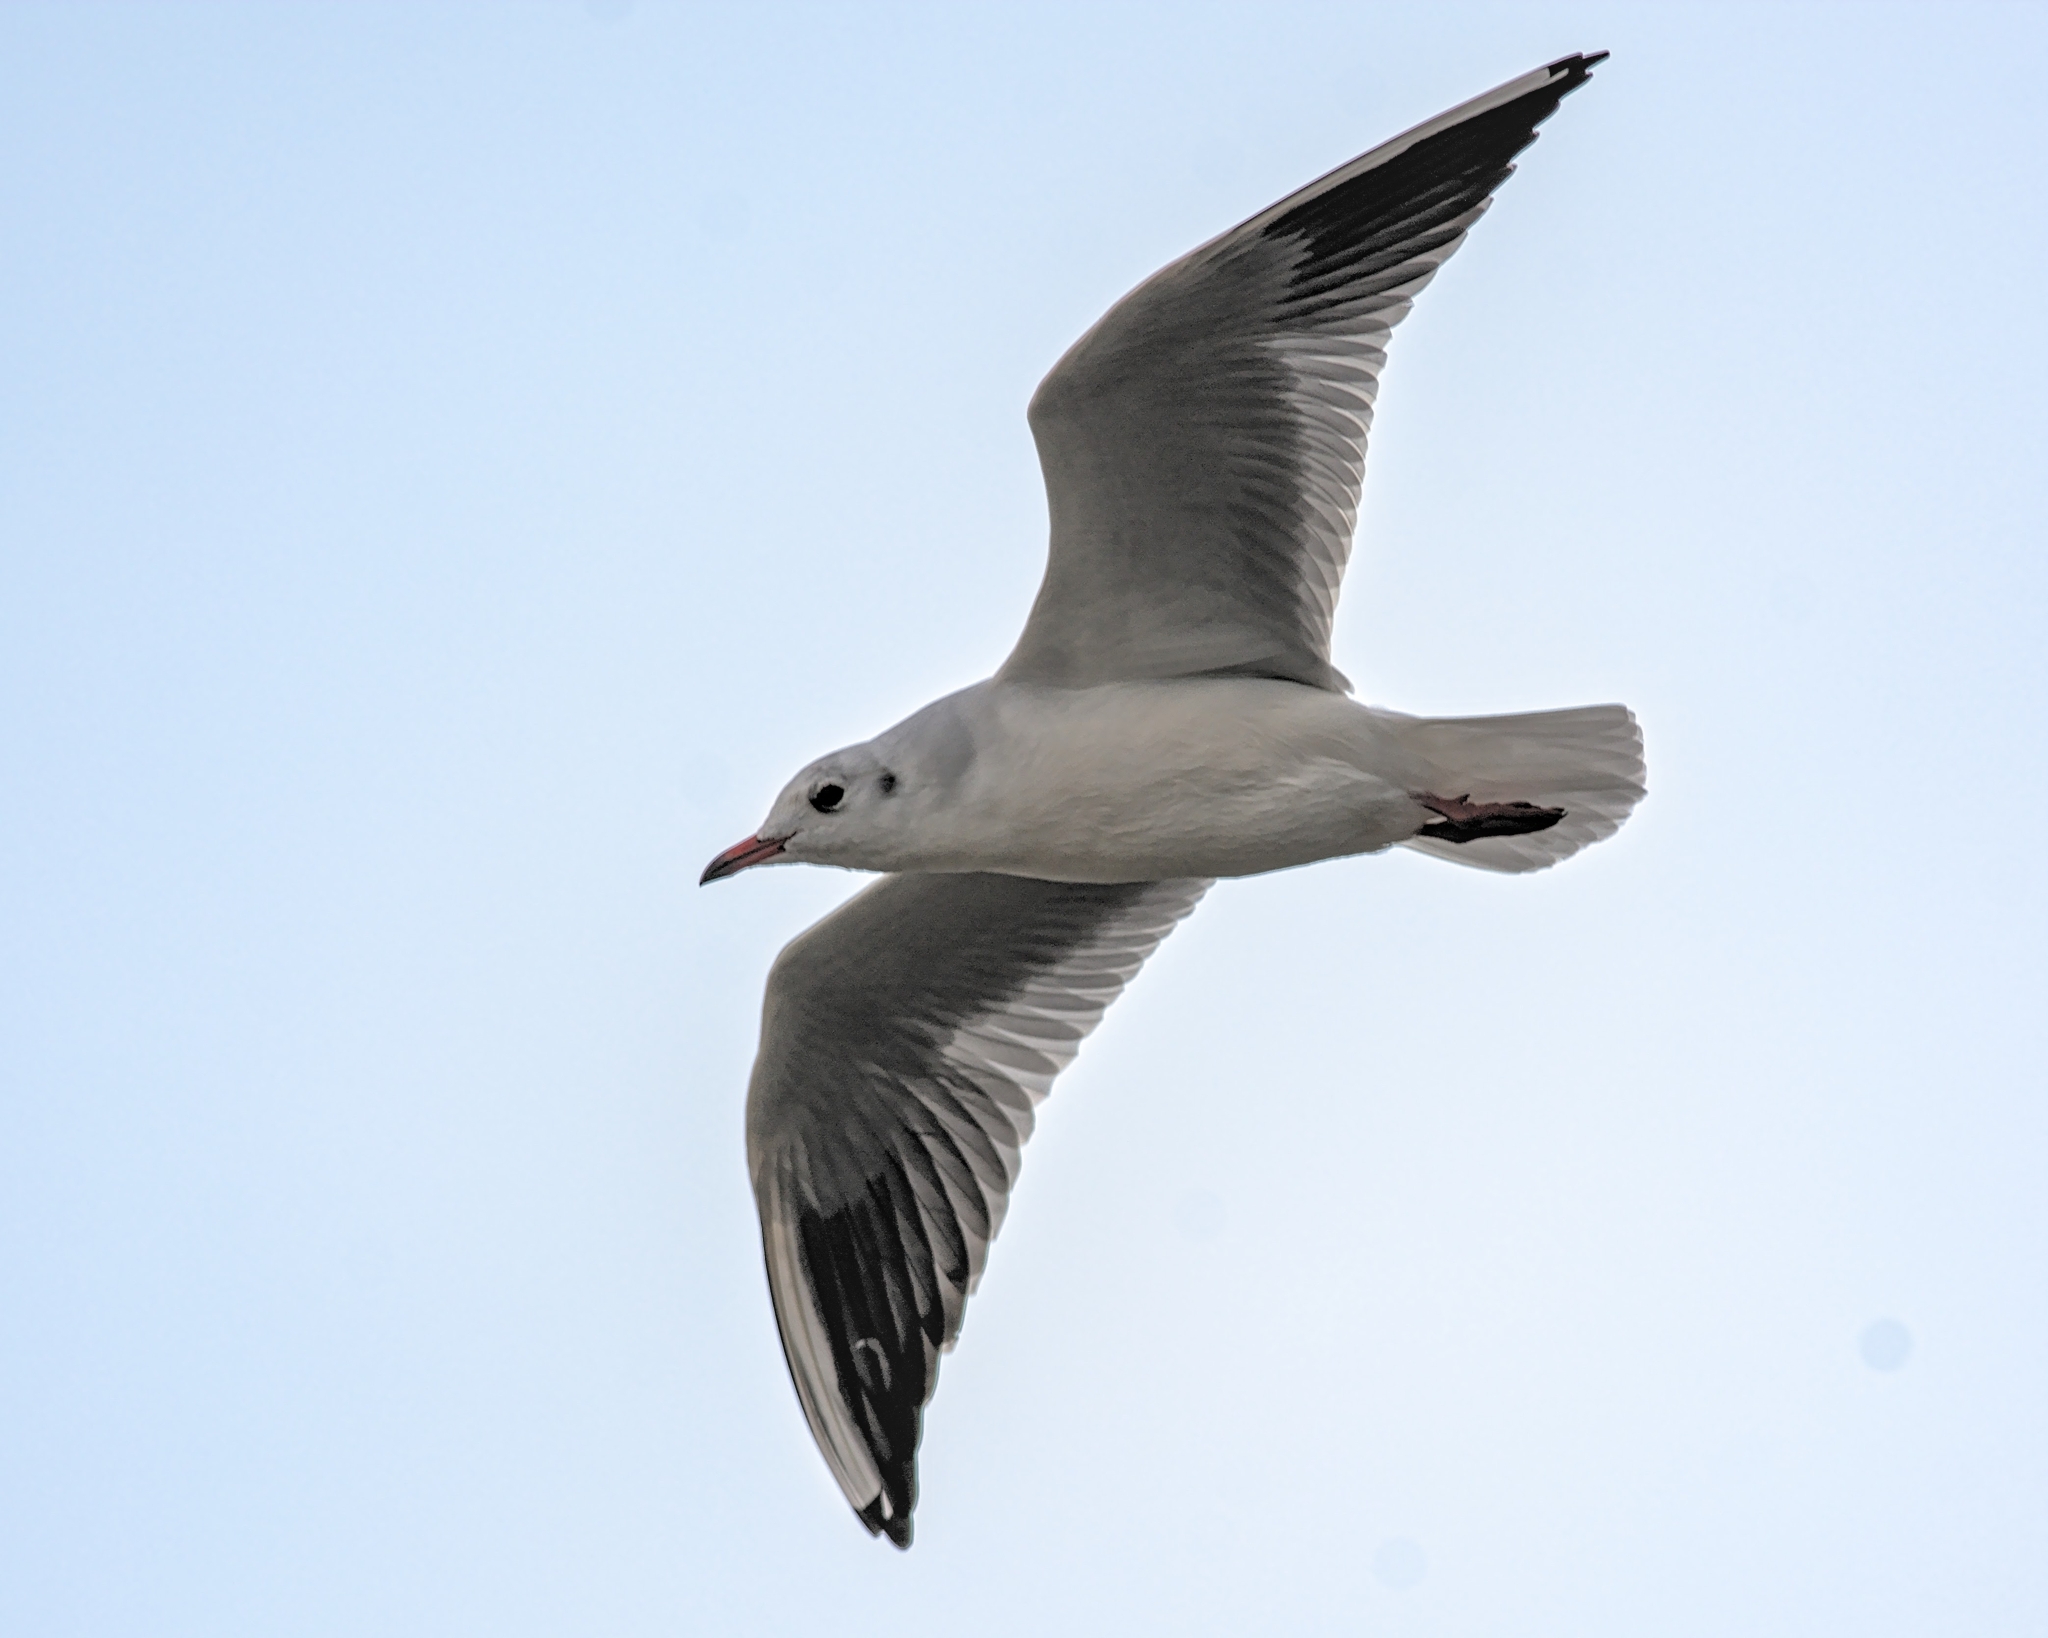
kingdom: Animalia
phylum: Chordata
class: Aves
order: Charadriiformes
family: Laridae
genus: Chroicocephalus
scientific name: Chroicocephalus ridibundus
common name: Black-headed gull
